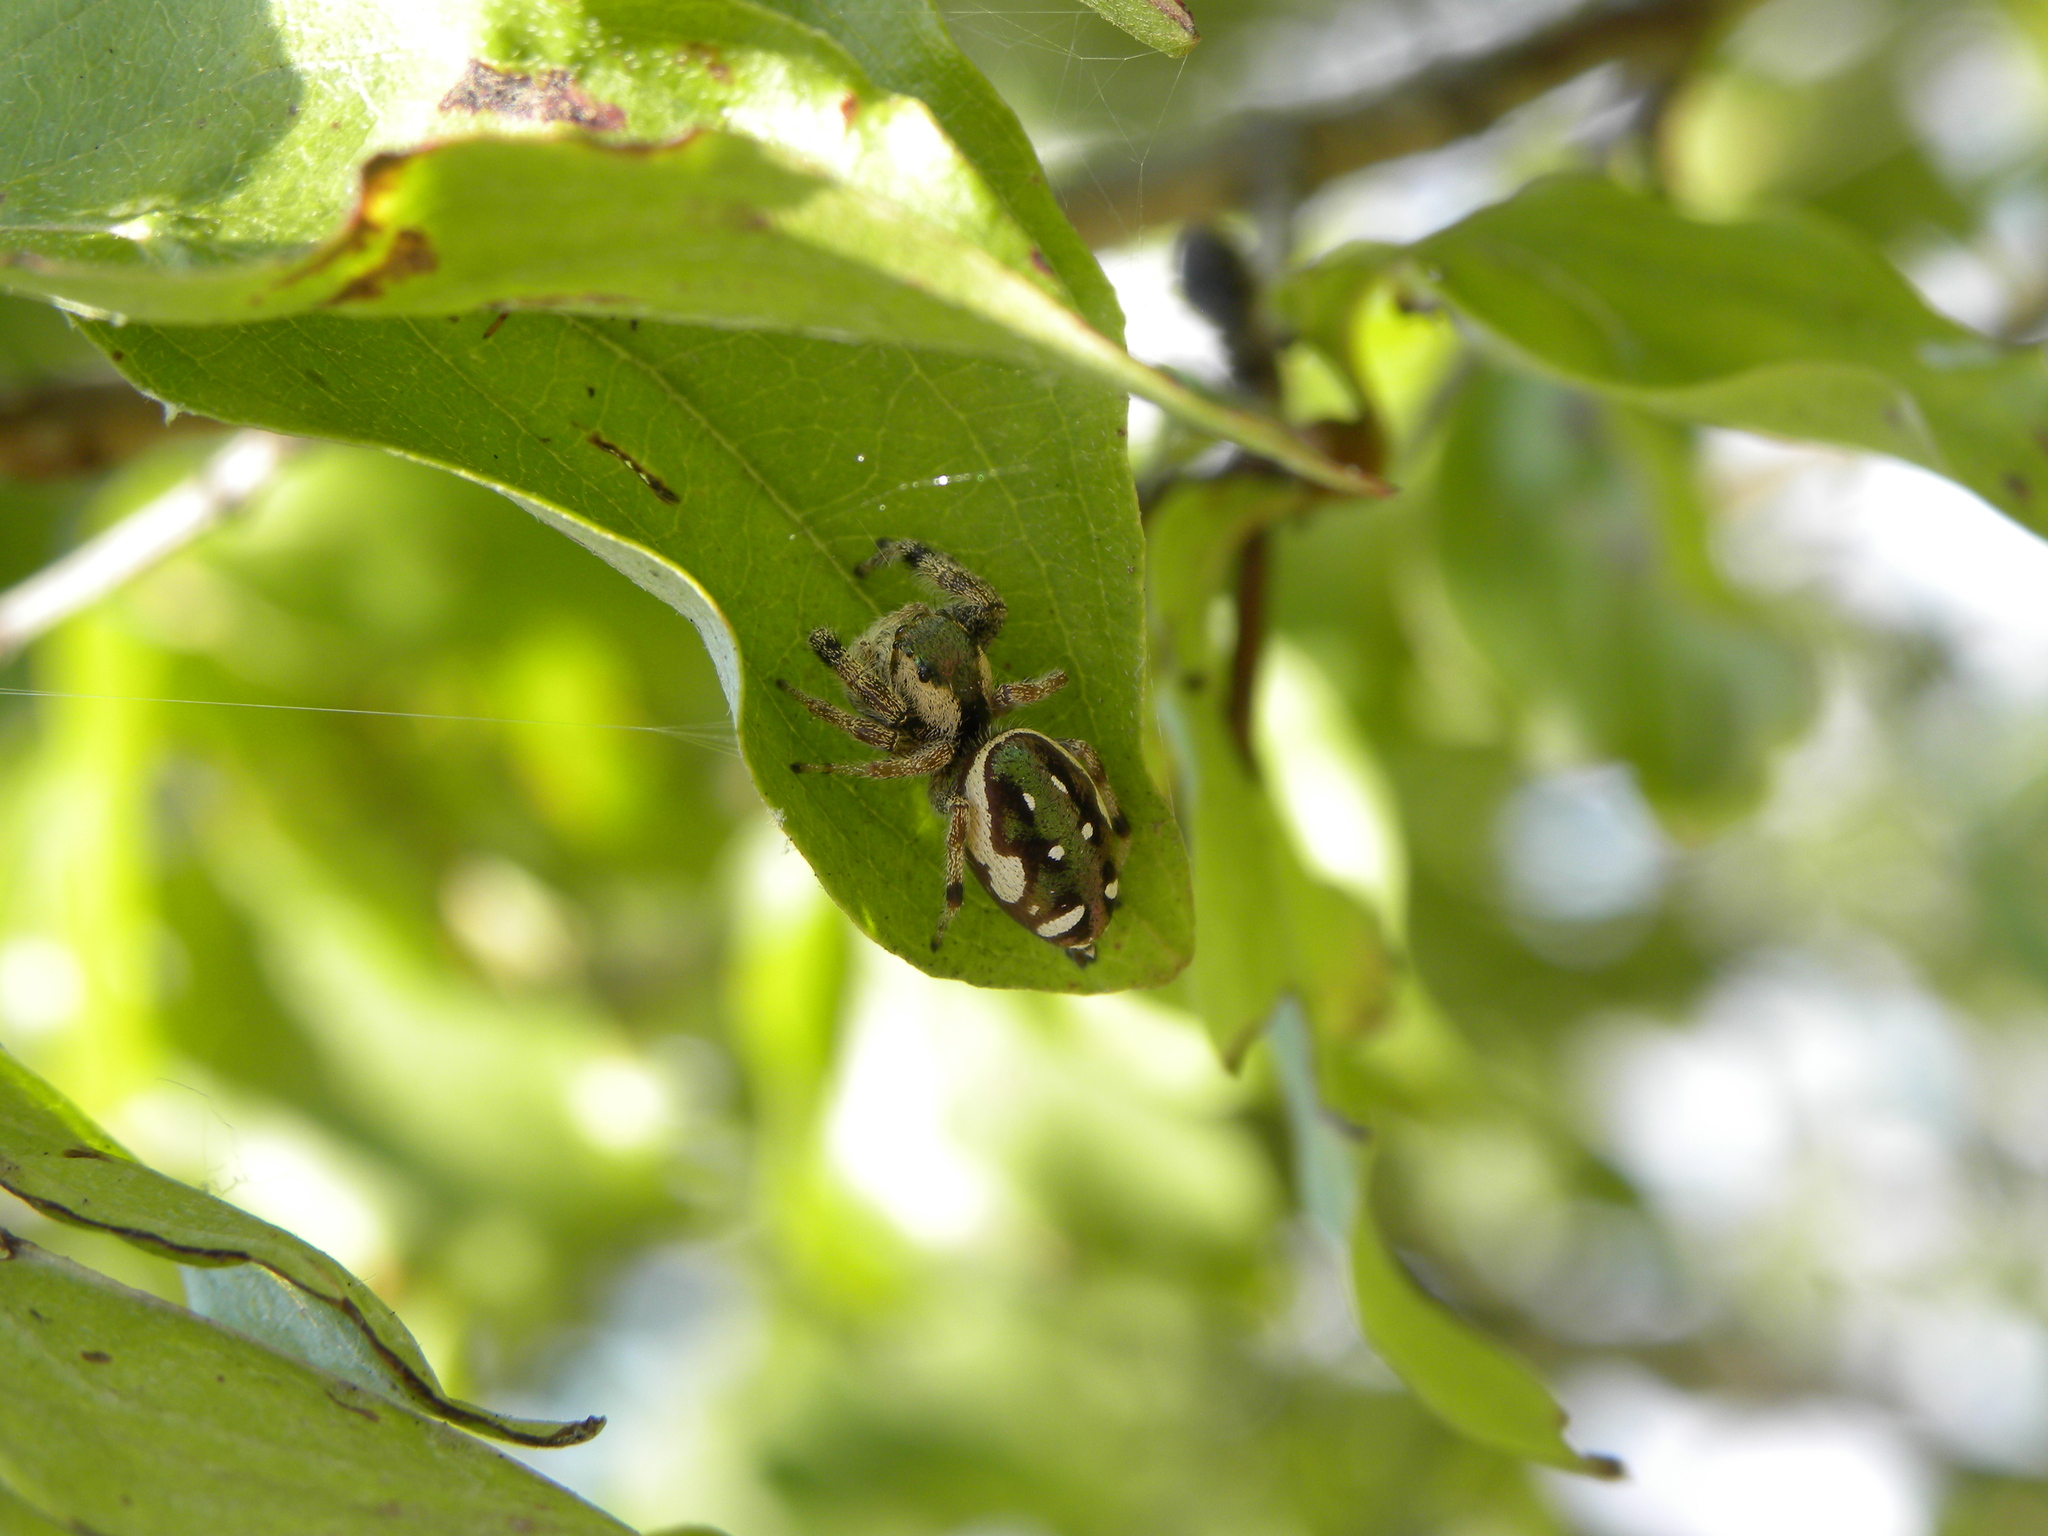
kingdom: Animalia
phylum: Arthropoda
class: Arachnida
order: Araneae
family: Salticidae
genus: Paraphidippus
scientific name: Paraphidippus aurantius
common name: Jumping spiders
